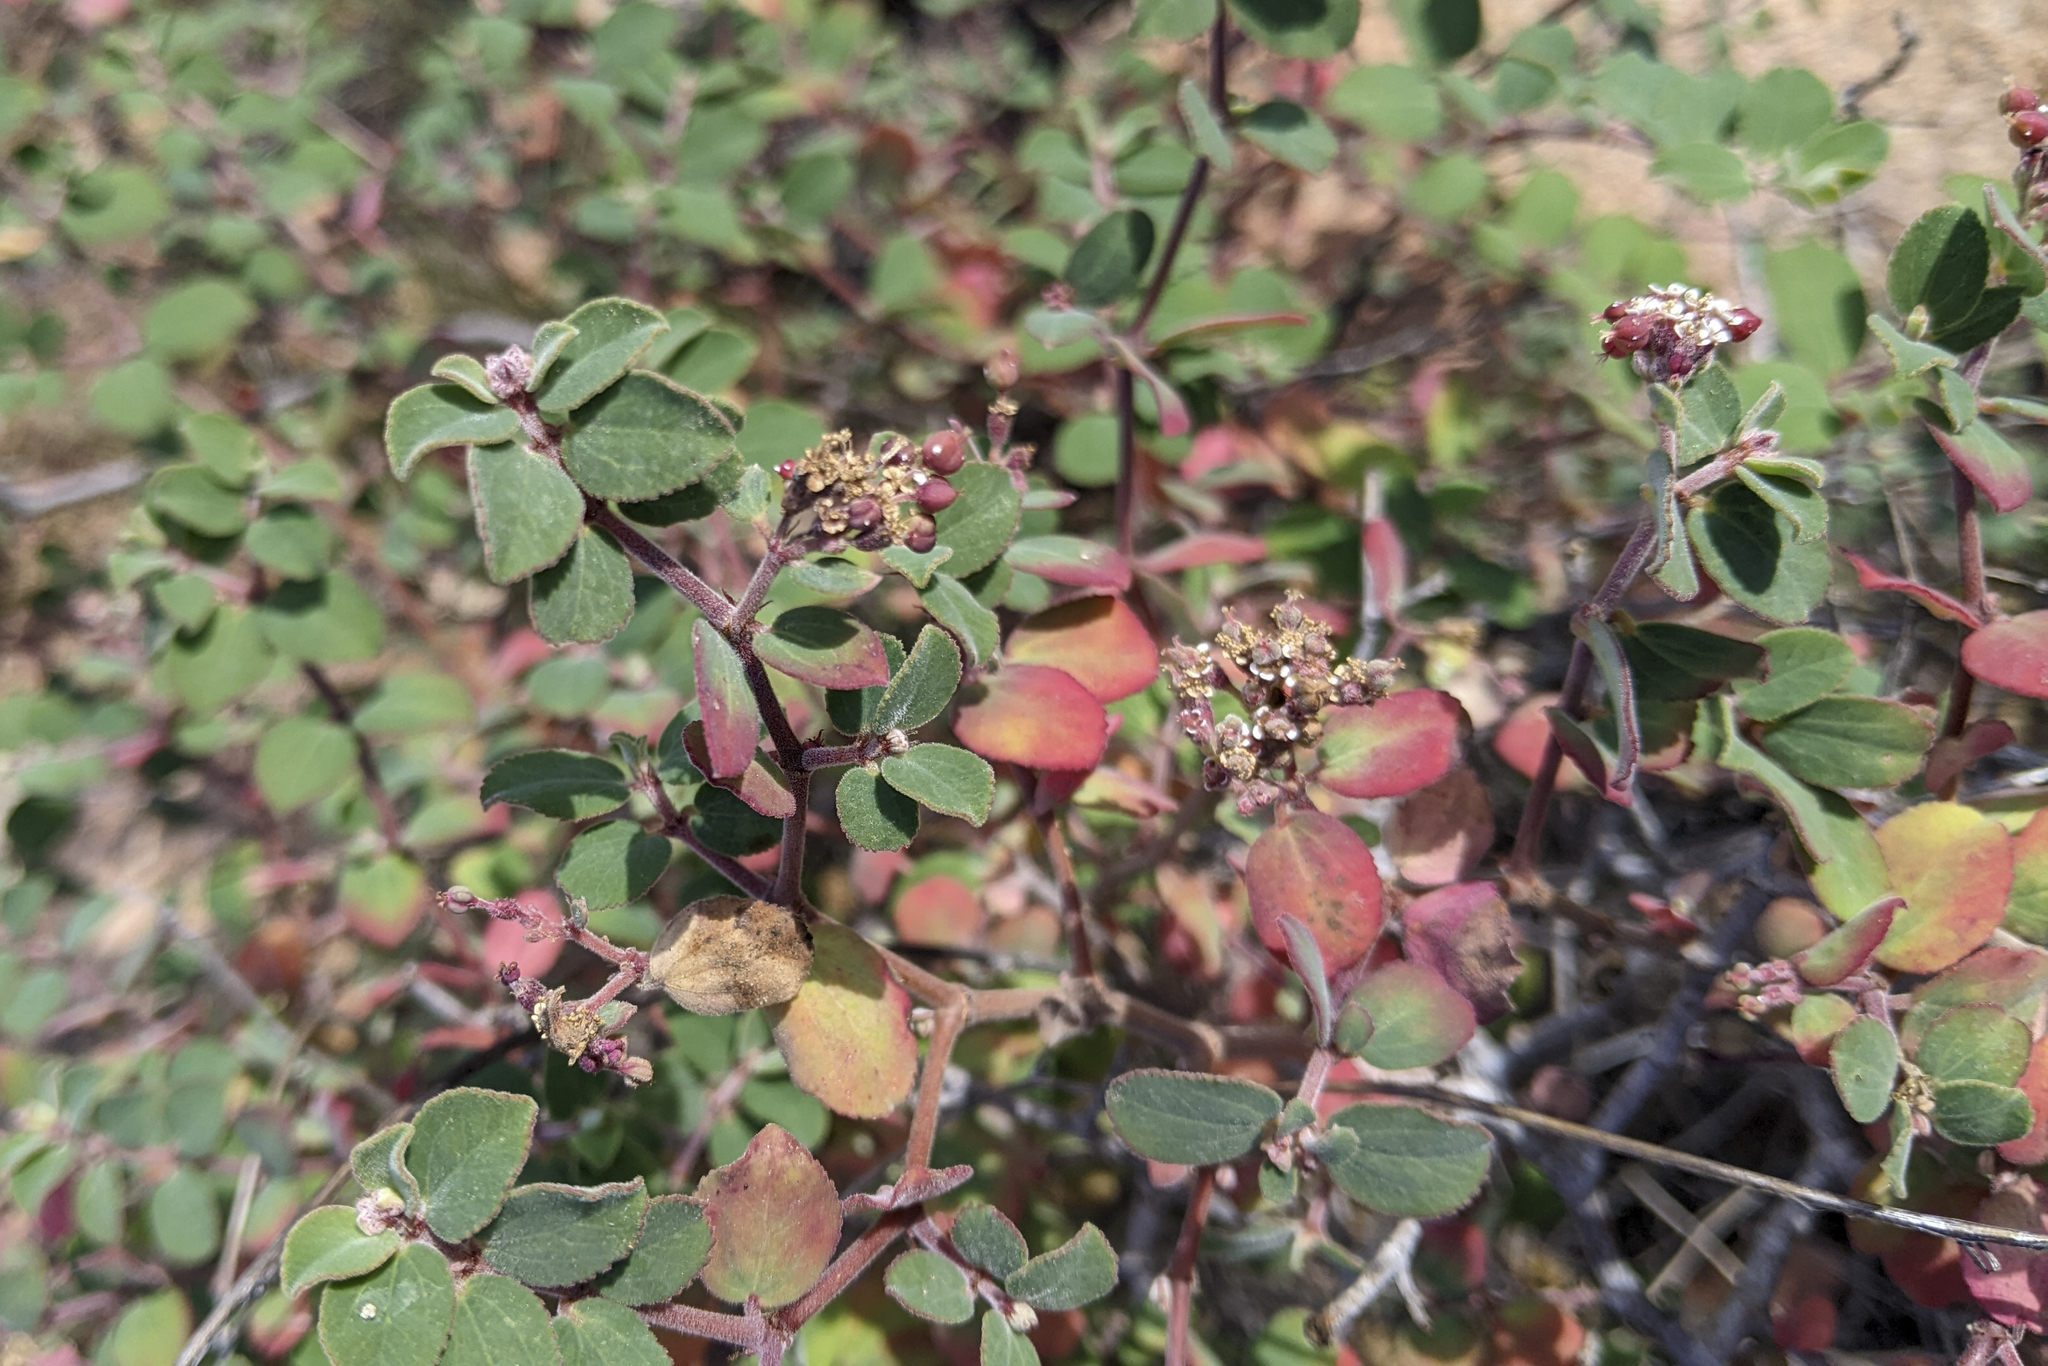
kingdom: Plantae
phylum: Tracheophyta
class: Magnoliopsida
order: Malpighiales
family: Euphorbiaceae
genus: Euphorbia
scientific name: Euphorbia tomentulosa
